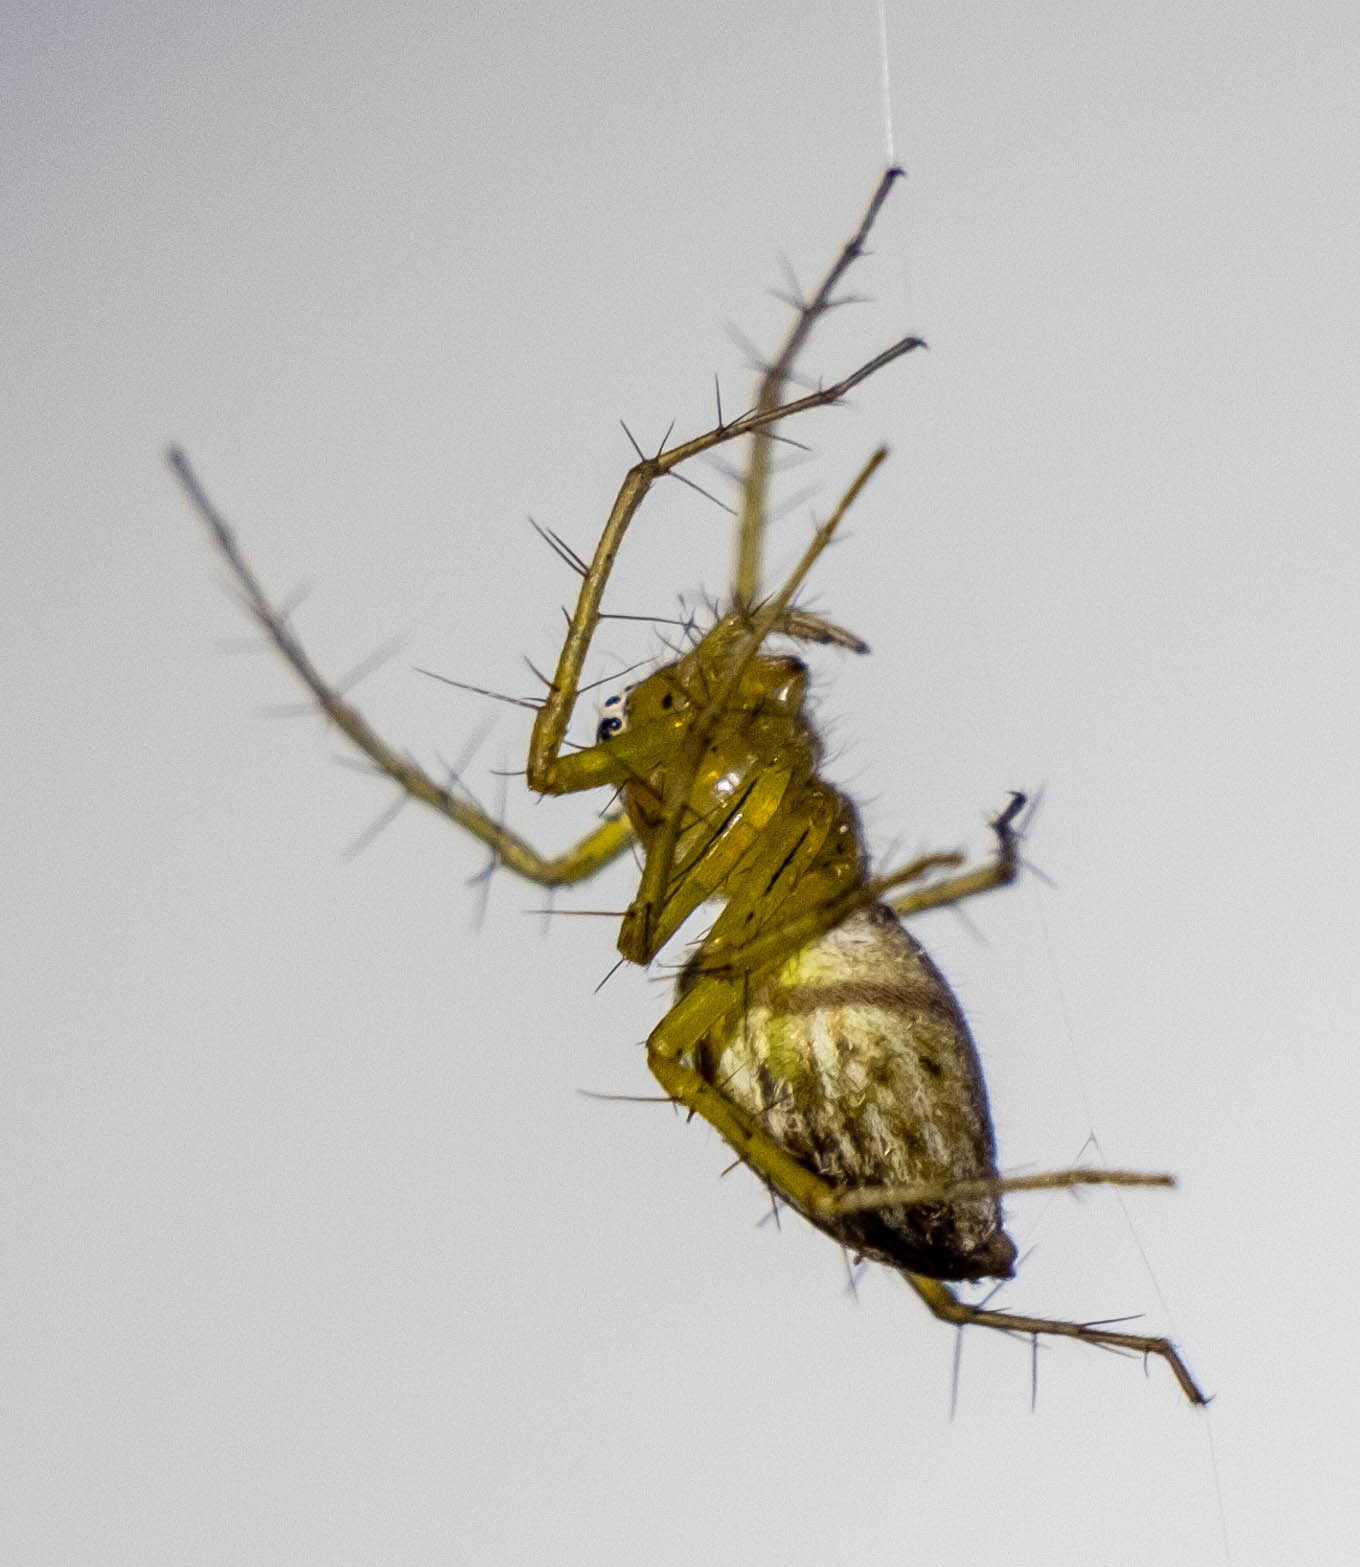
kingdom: Animalia
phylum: Arthropoda
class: Arachnida
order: Araneae
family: Oxyopidae
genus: Oxyopes
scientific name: Oxyopes salticus
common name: Lynx spiders
